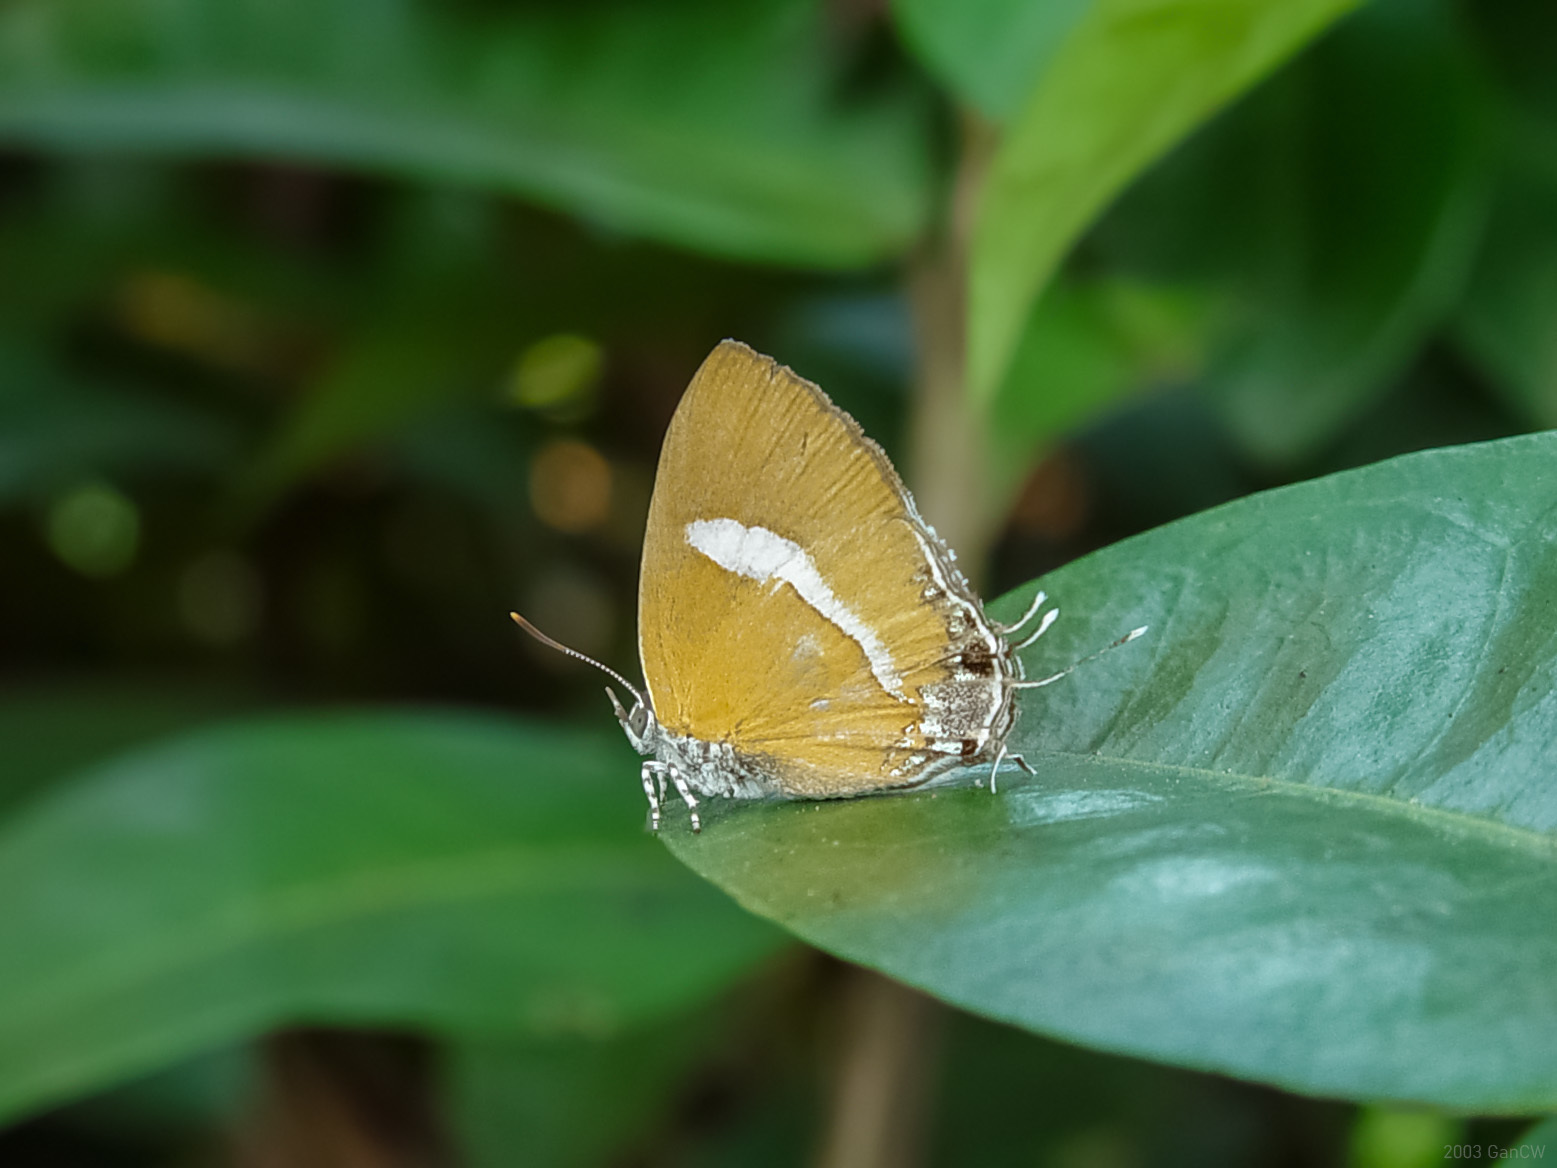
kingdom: Animalia
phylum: Arthropoda
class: Insecta
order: Lepidoptera
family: Lycaenidae
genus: Horaga
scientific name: Horaga syrinx
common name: Ambon onyx
